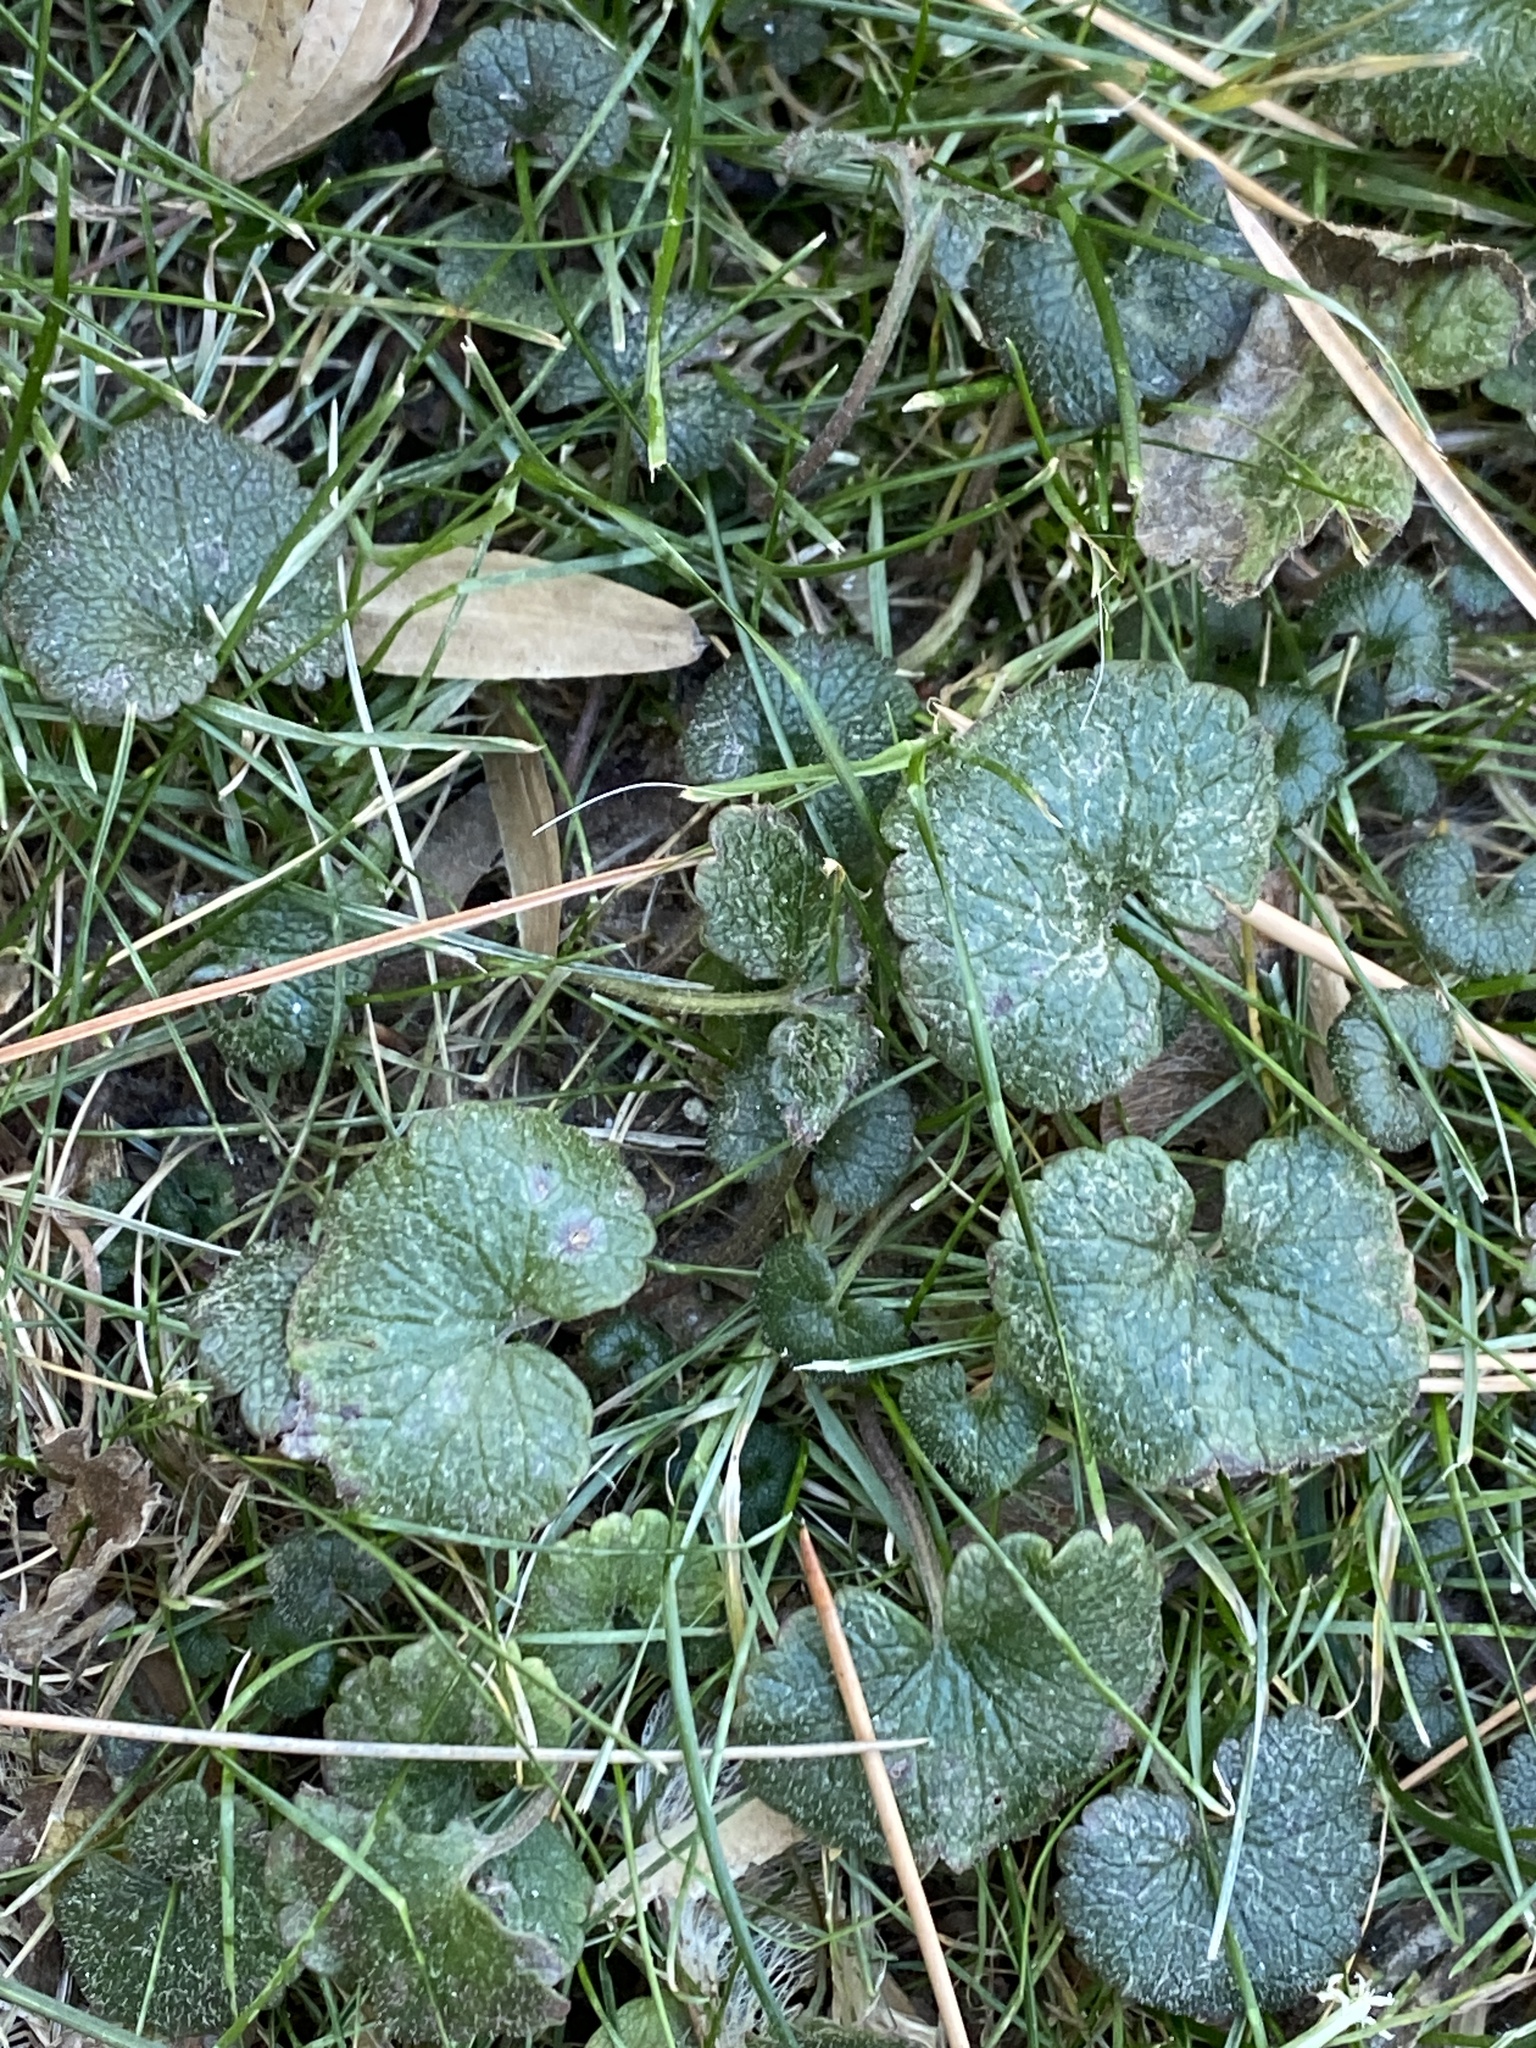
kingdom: Plantae
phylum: Tracheophyta
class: Magnoliopsida
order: Lamiales
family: Lamiaceae
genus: Glechoma
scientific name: Glechoma hederacea
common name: Ground ivy
